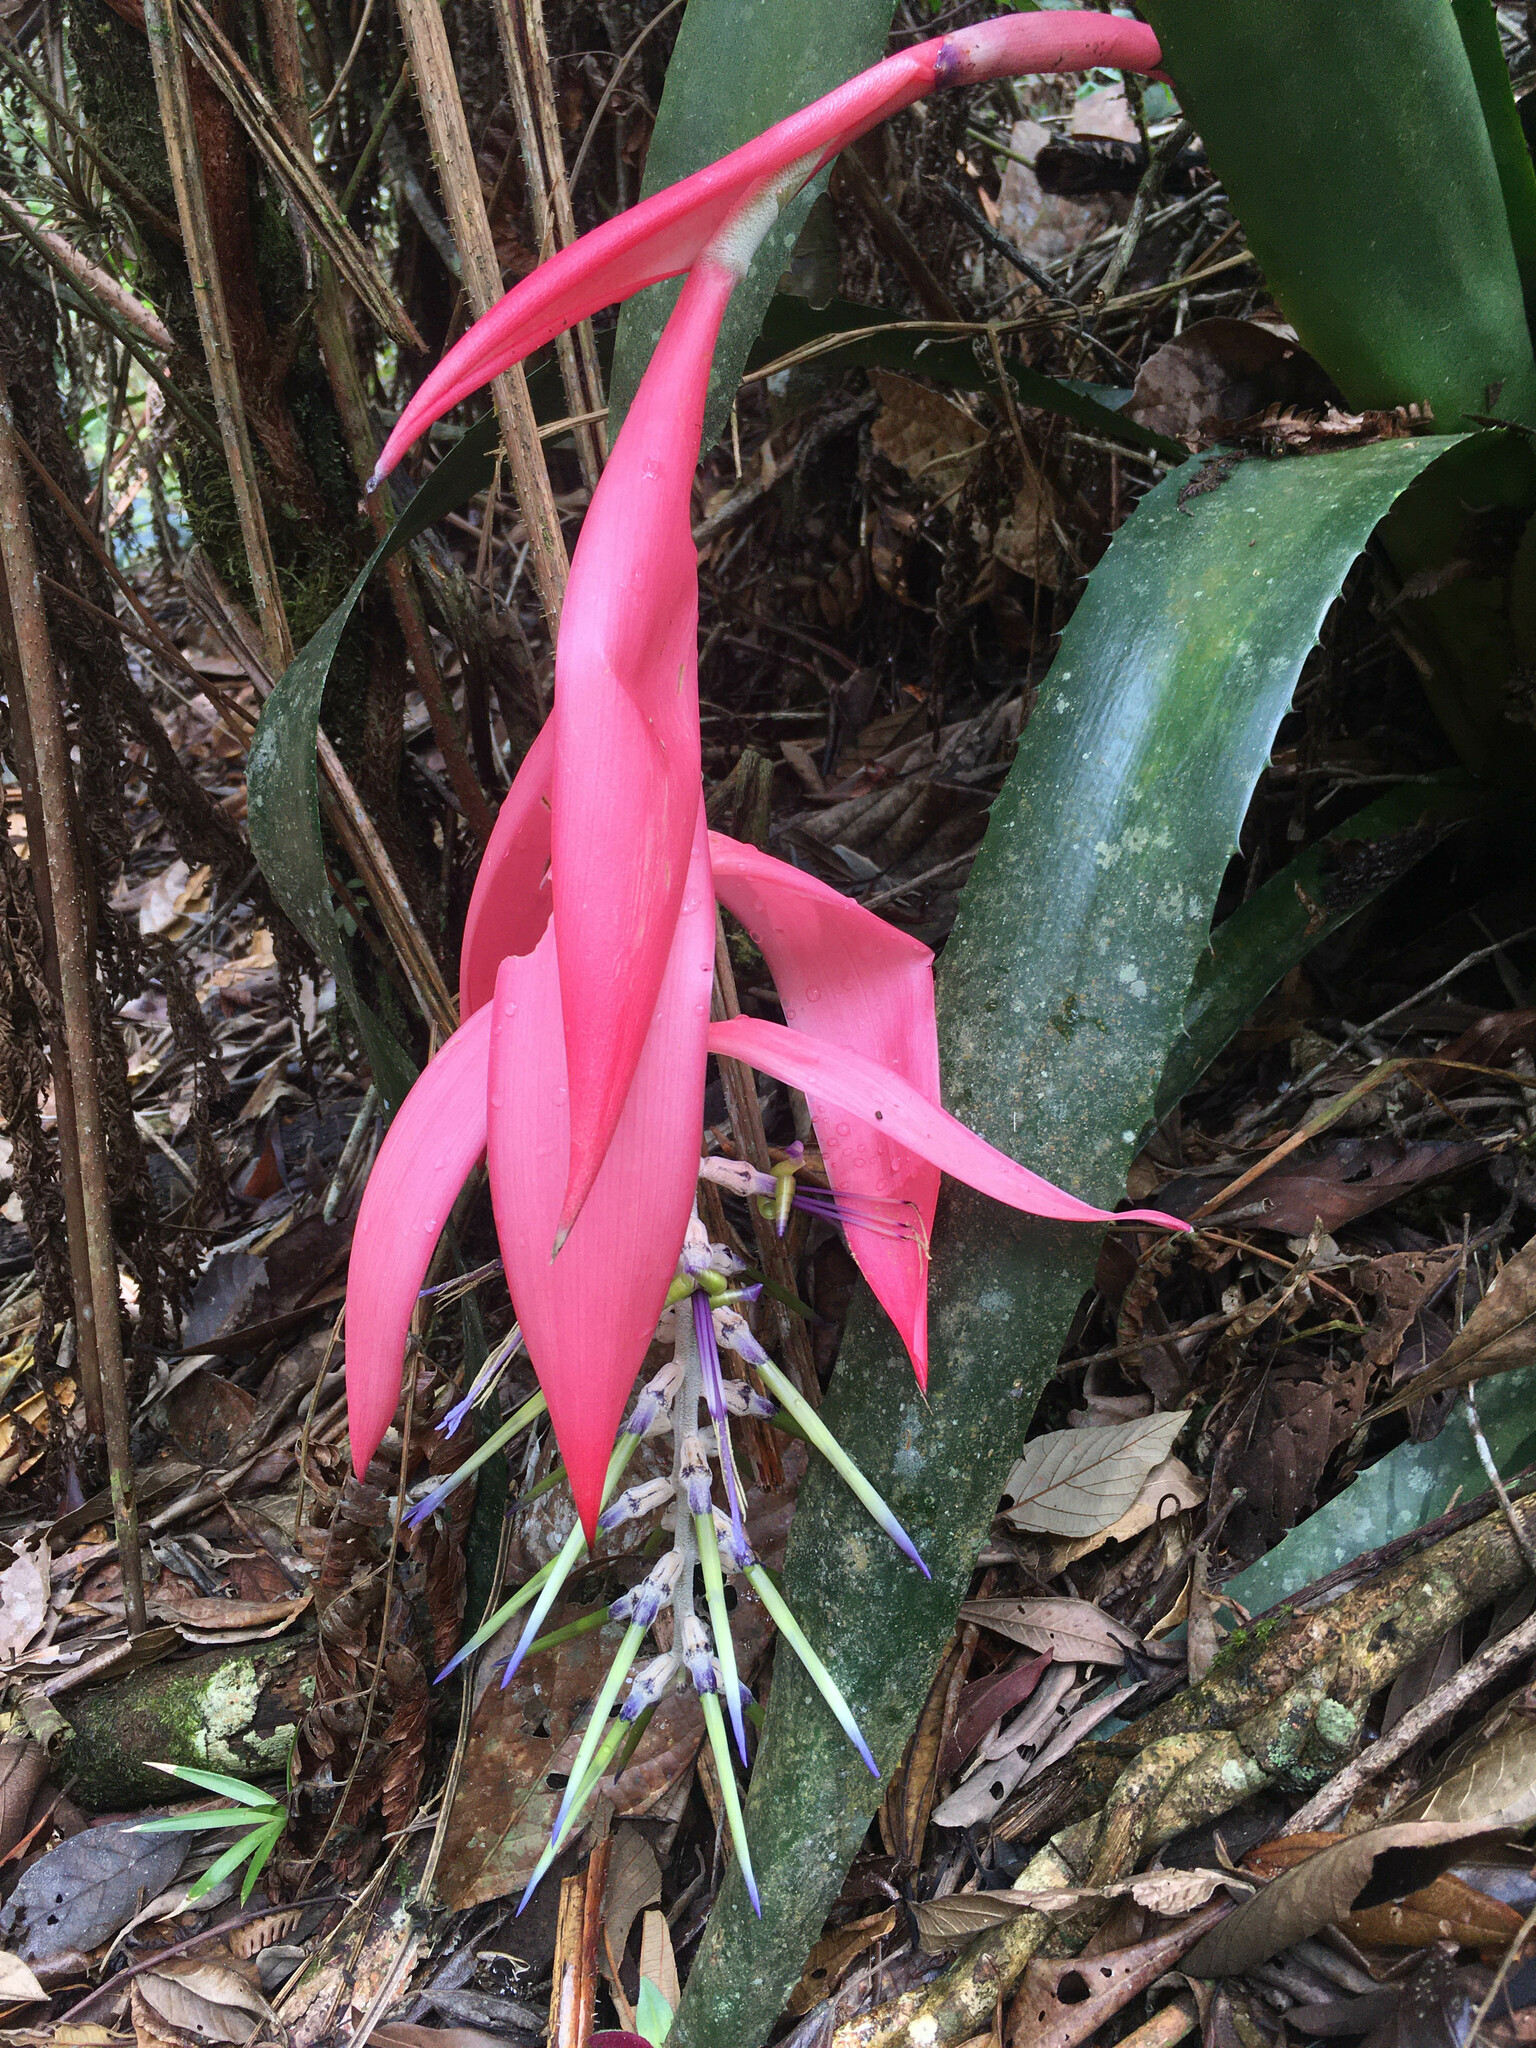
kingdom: Plantae
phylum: Tracheophyta
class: Liliopsida
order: Poales
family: Bromeliaceae
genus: Billbergia
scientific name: Billbergia alfonsi-joannis
